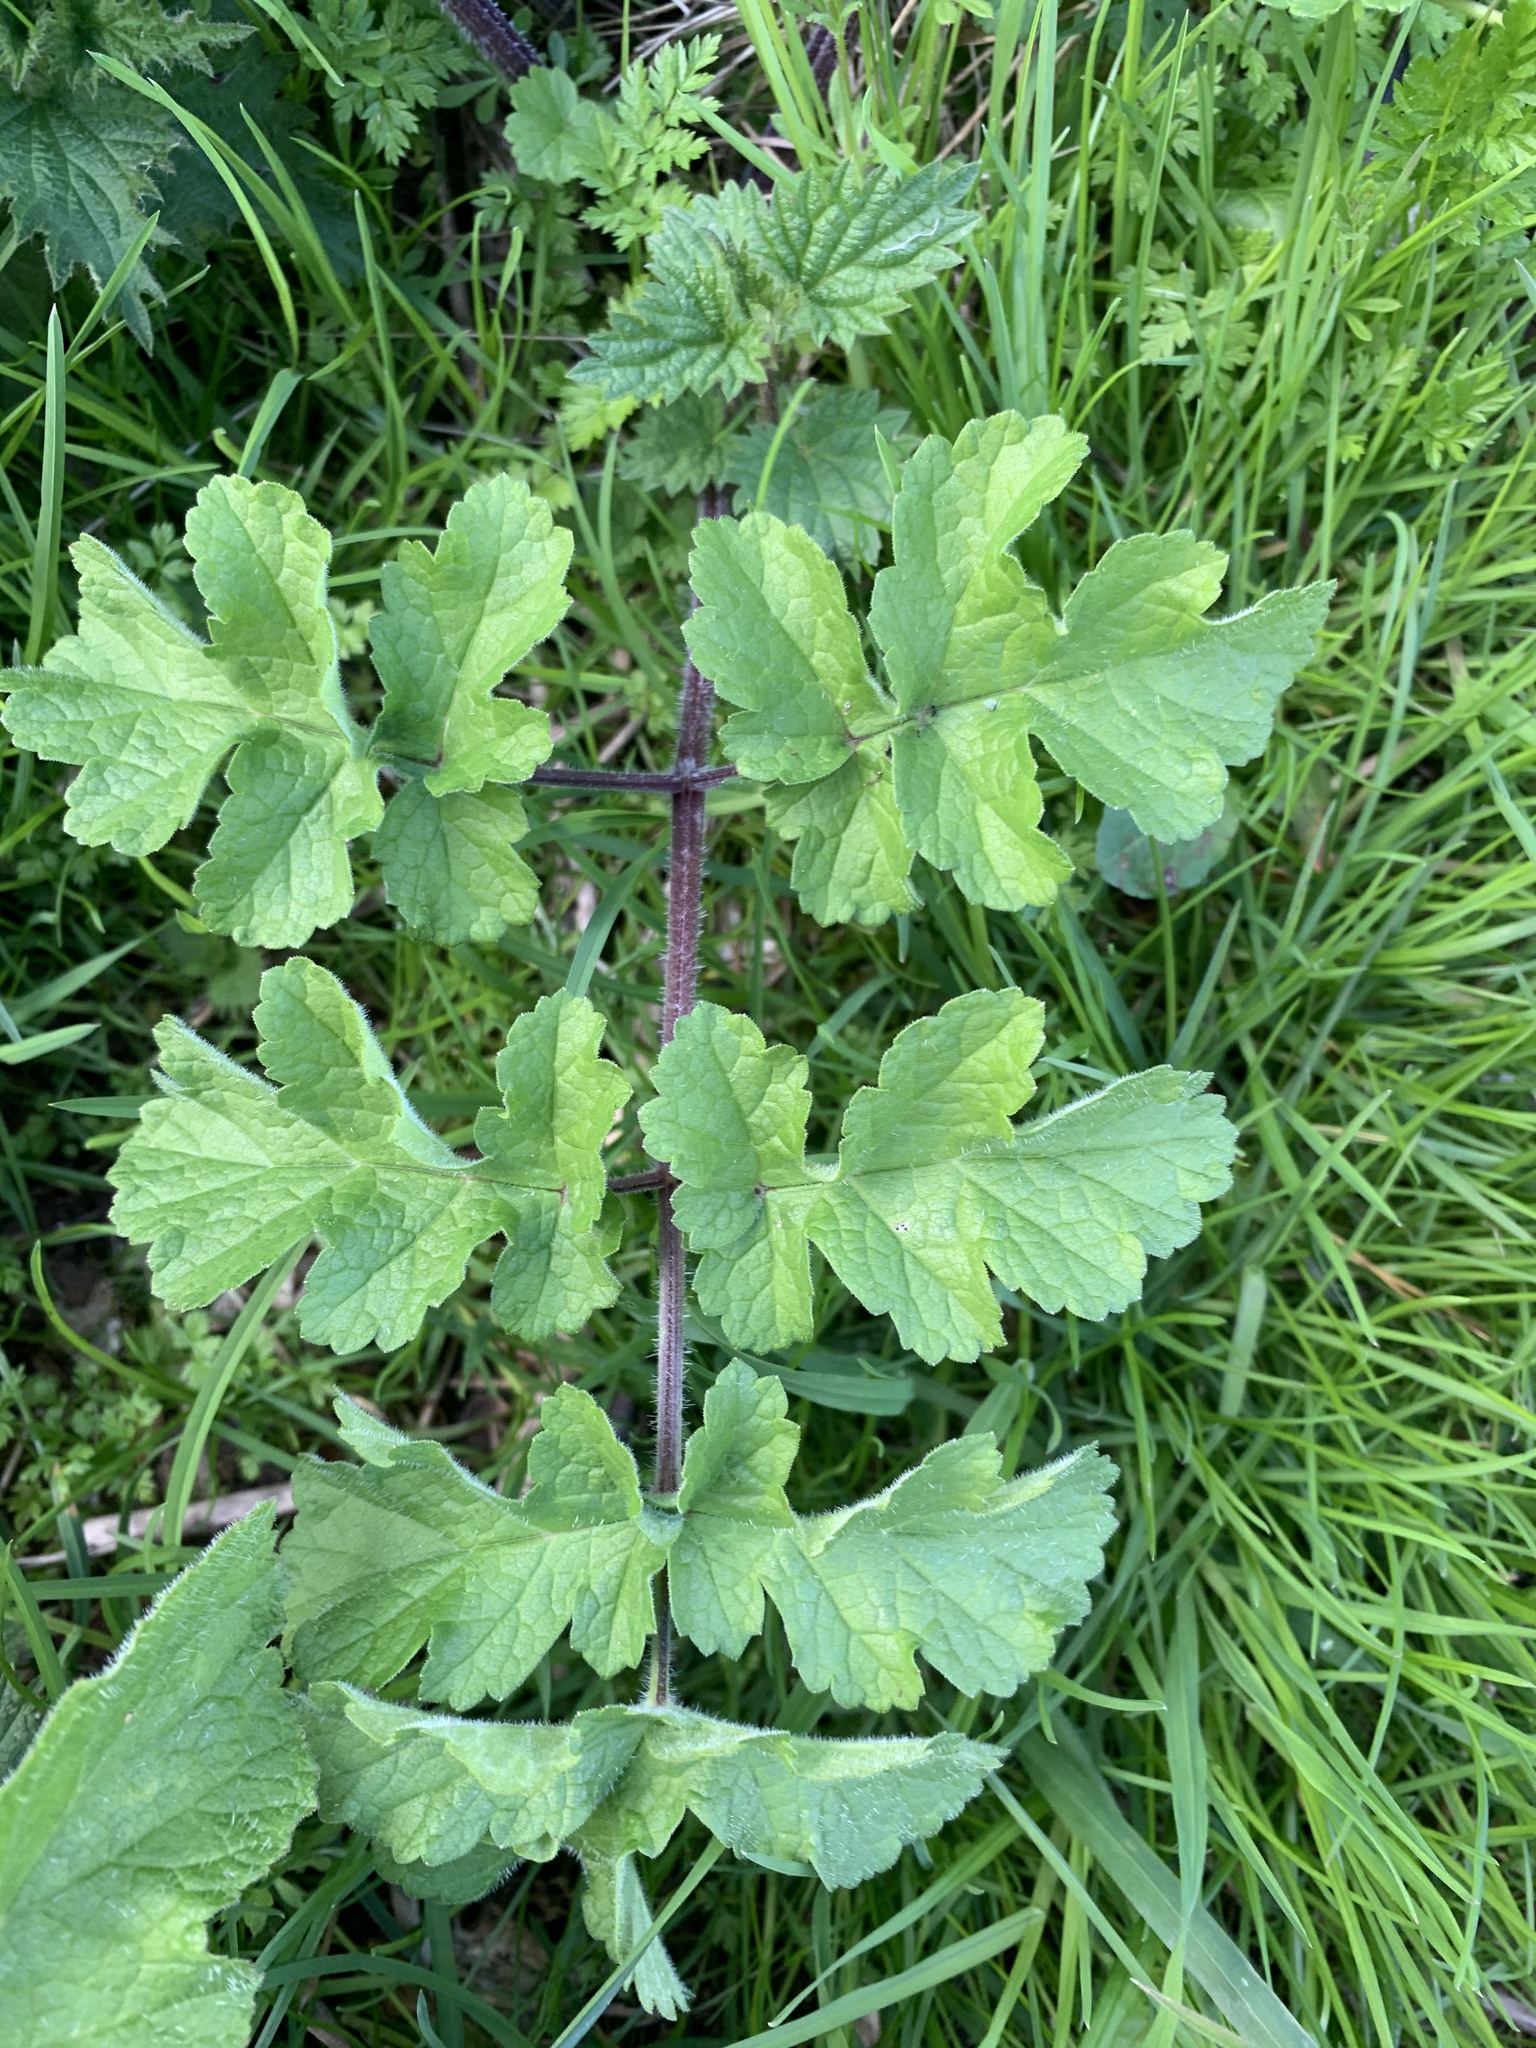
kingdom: Plantae
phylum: Tracheophyta
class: Magnoliopsida
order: Apiales
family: Apiaceae
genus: Heracleum
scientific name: Heracleum sphondylium
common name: Hogweed
